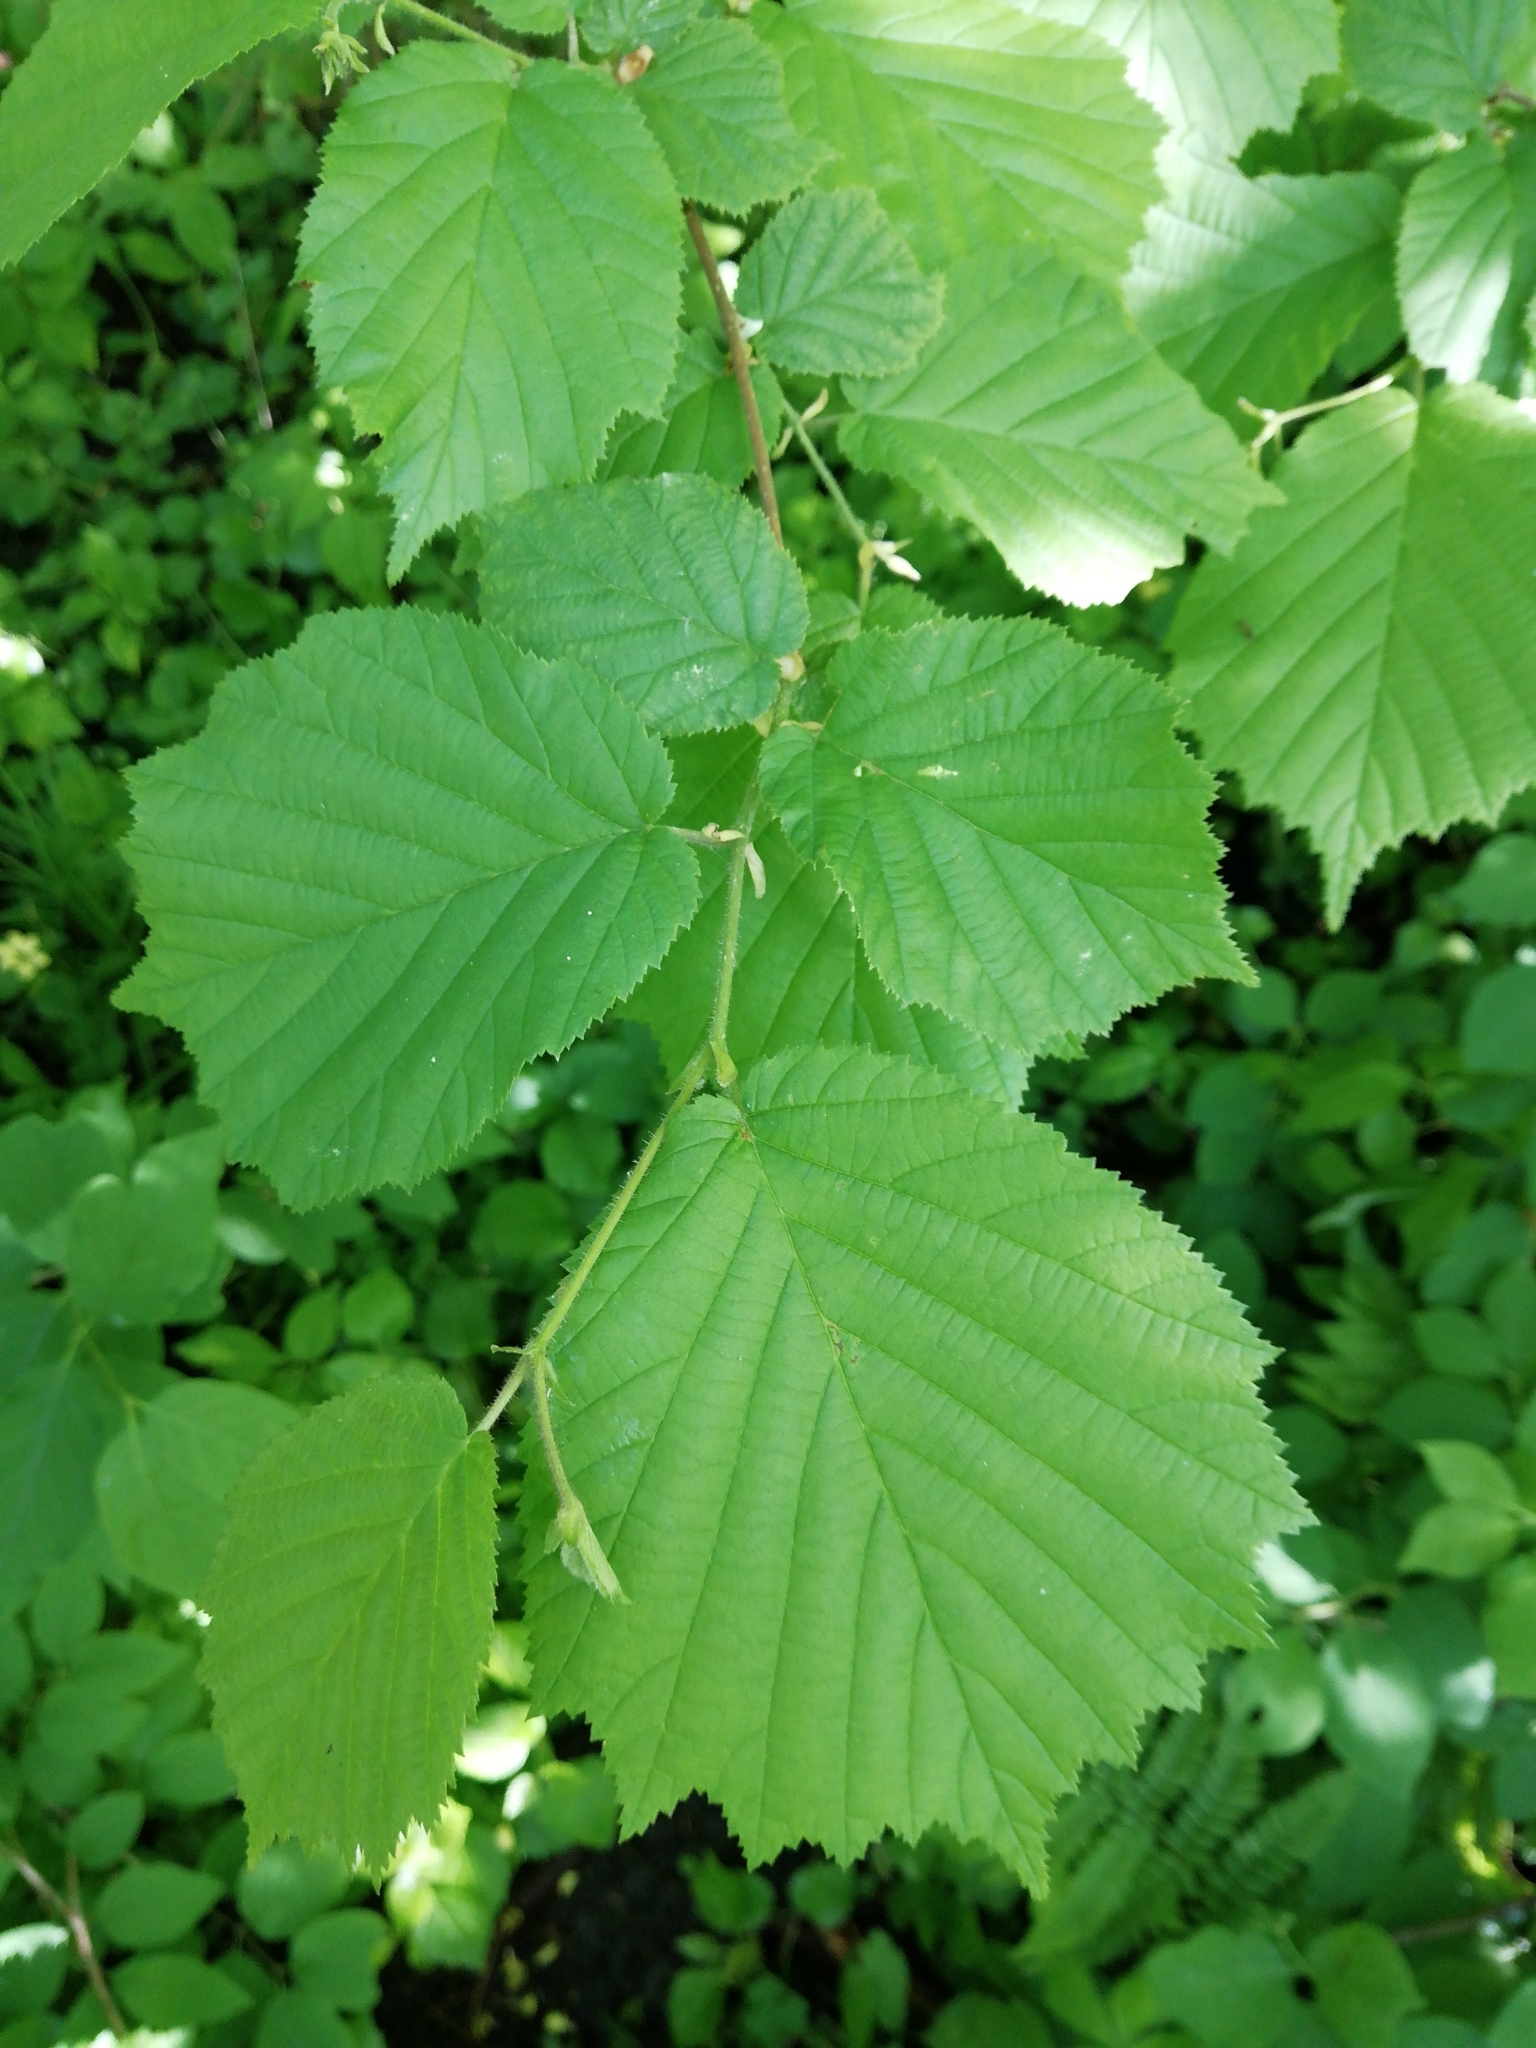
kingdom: Plantae
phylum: Tracheophyta
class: Magnoliopsida
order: Fagales
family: Betulaceae
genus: Corylus
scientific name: Corylus avellana
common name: European hazel
